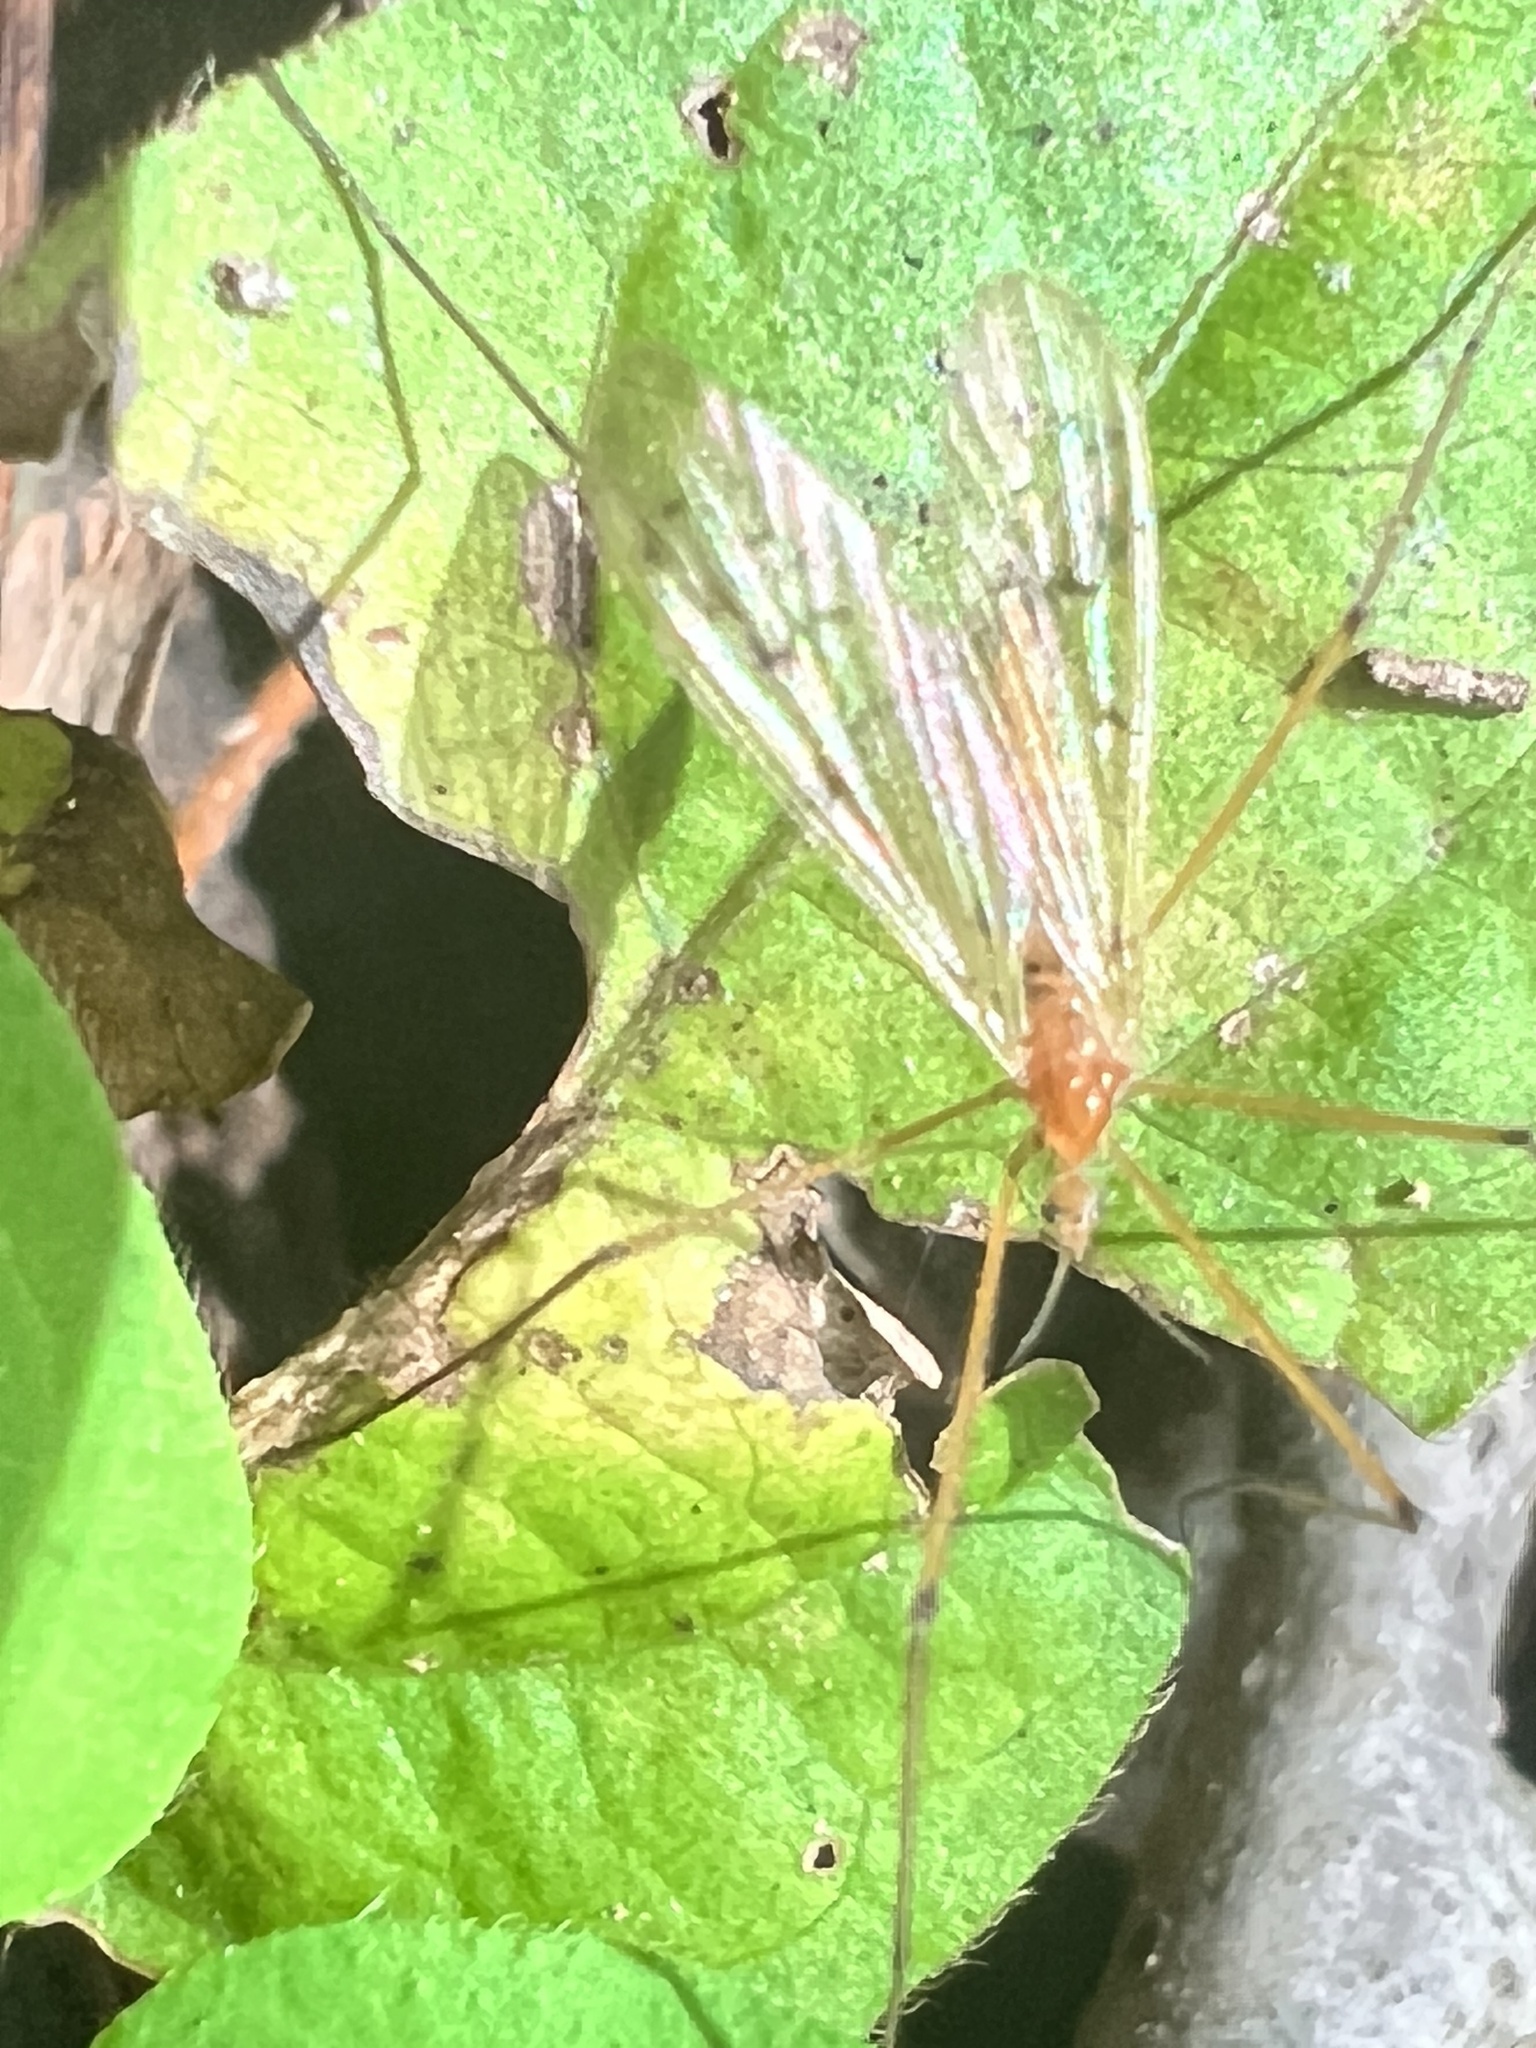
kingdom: Animalia
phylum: Arthropoda
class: Insecta
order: Diptera
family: Limoniidae
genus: Cladura
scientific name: Cladura flavoferruginea
